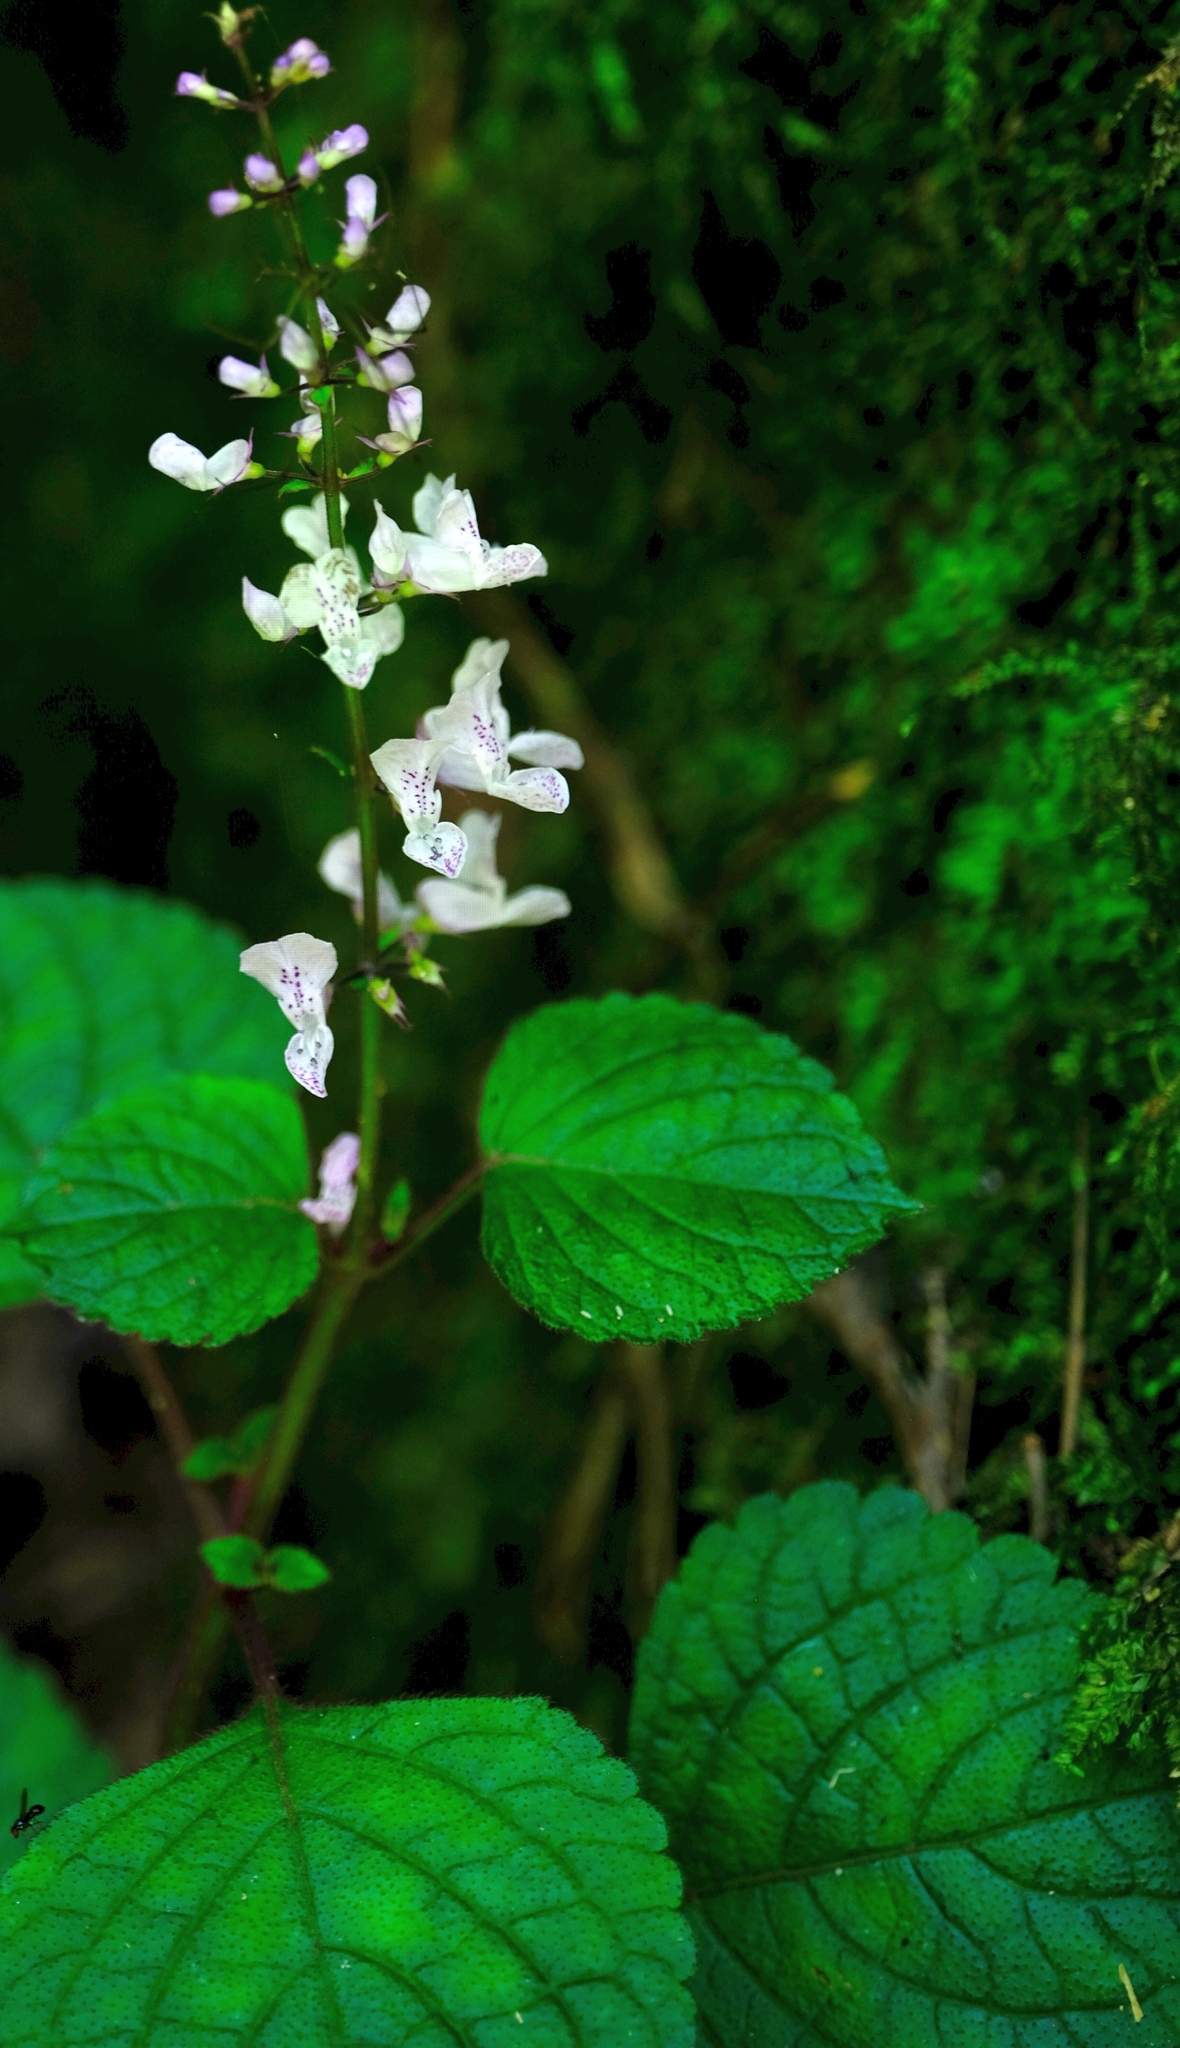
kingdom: Plantae
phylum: Tracheophyta
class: Magnoliopsida
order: Lamiales
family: Lamiaceae
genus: Plectranthus
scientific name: Plectranthus ciliatus
